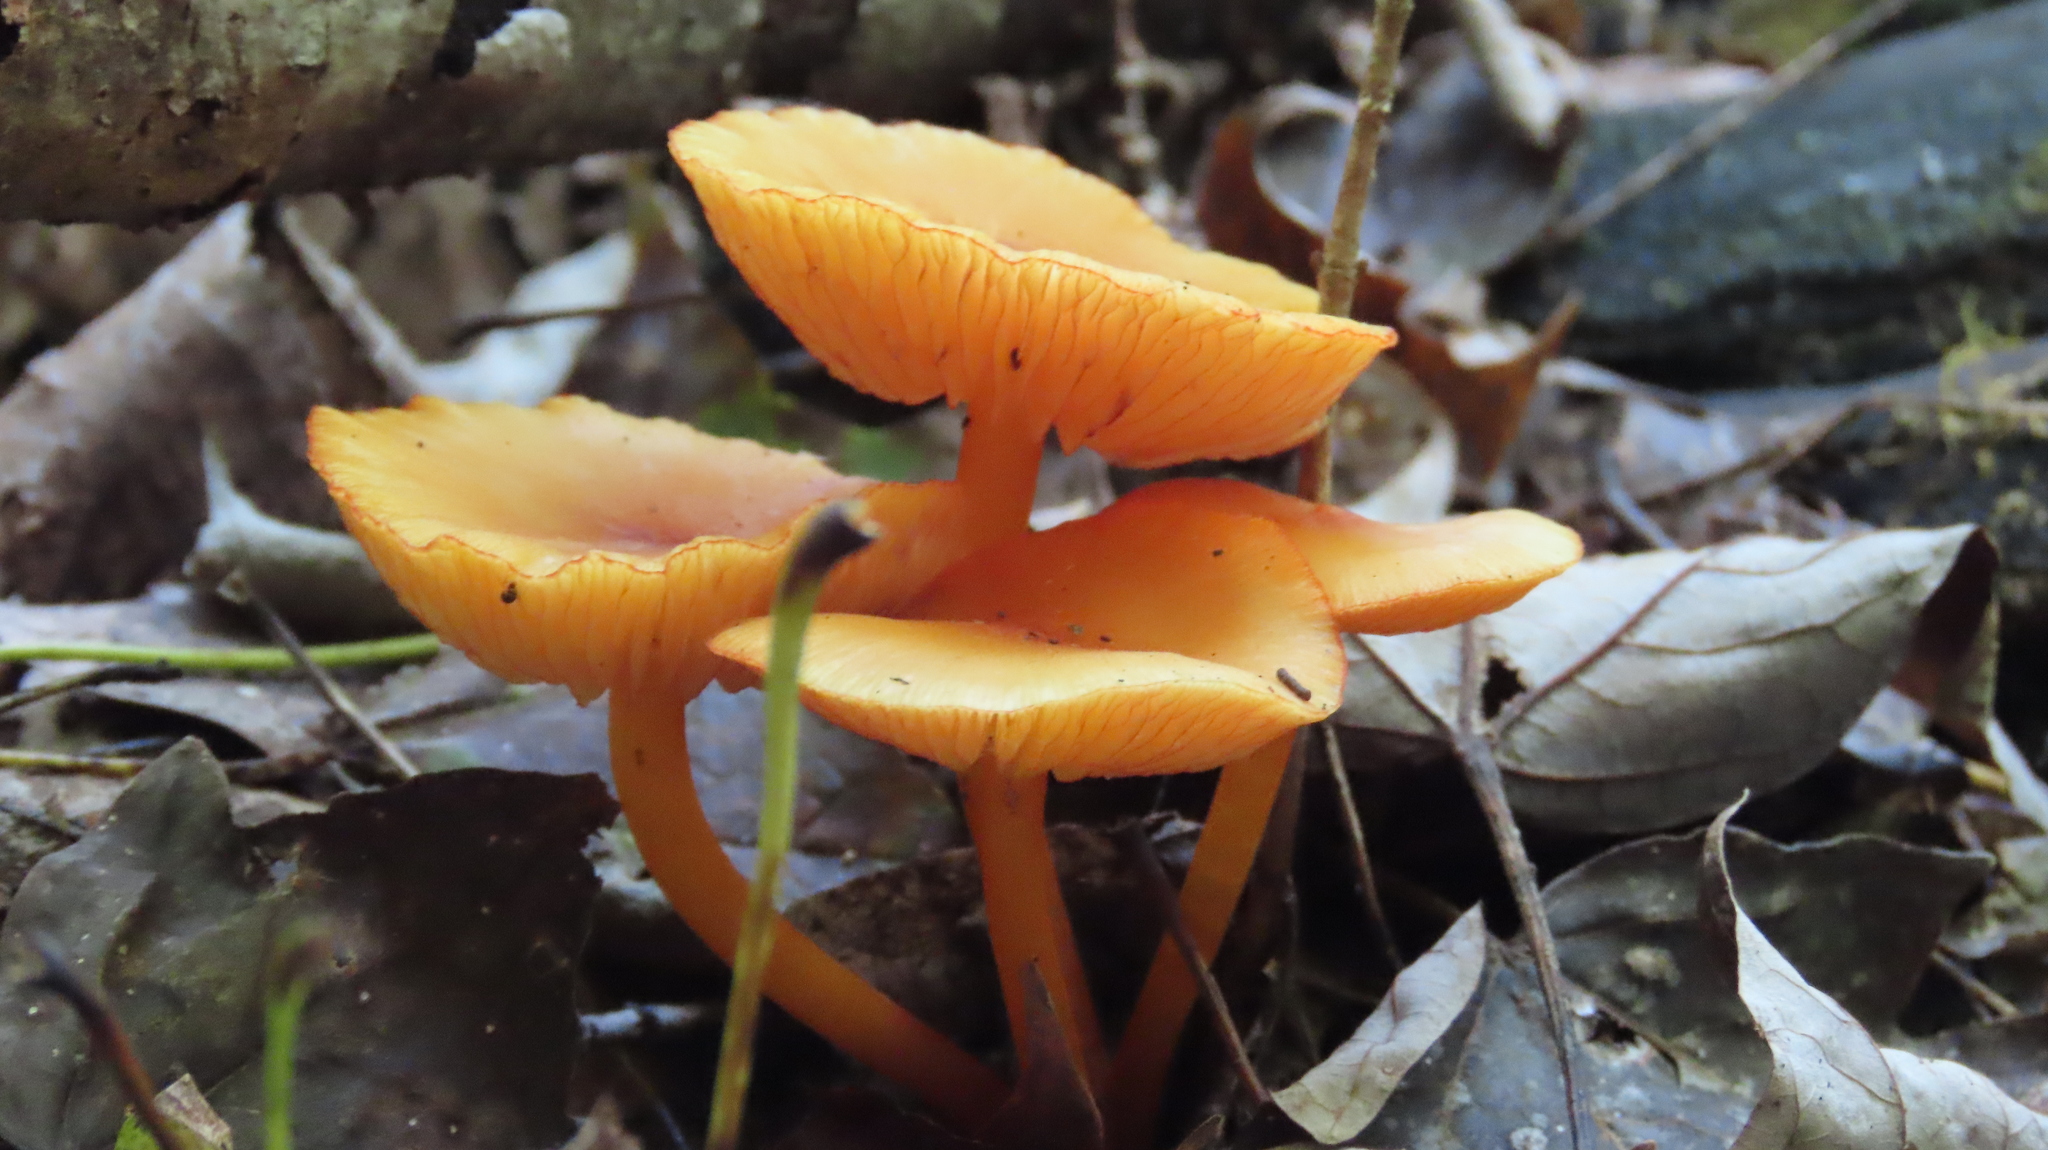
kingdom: Fungi
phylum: Basidiomycota
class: Agaricomycetes
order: Agaricales
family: Mycenaceae
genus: Mycena
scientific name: Mycena leaiana
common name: Orange mycena
